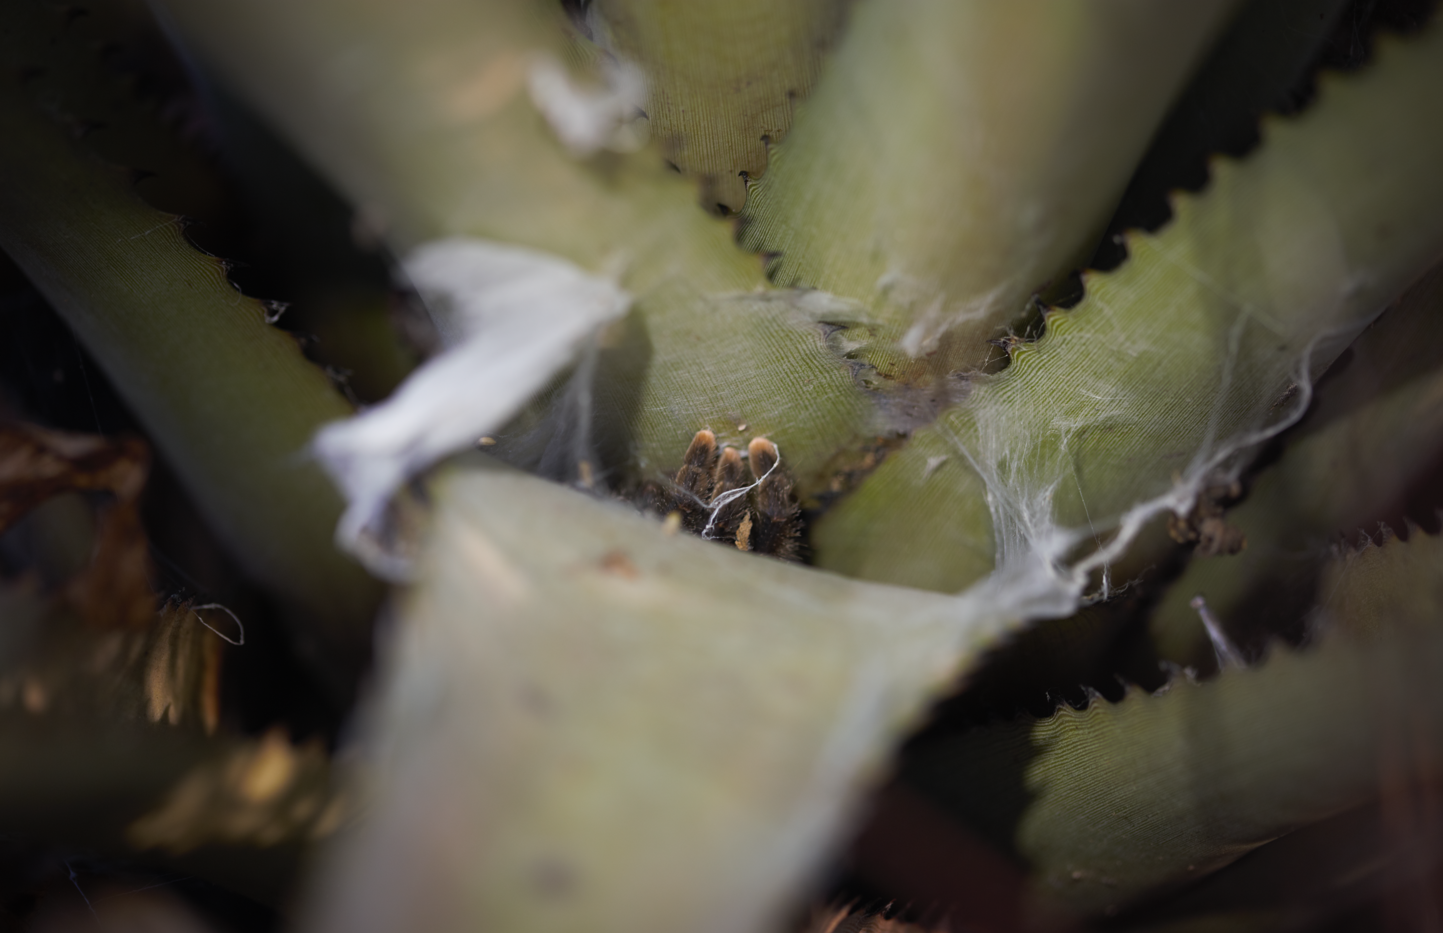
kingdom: Animalia
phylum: Arthropoda
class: Arachnida
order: Araneae
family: Theraphosidae
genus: Avicularia
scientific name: Avicularia avicularia
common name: Tarantula spiders
